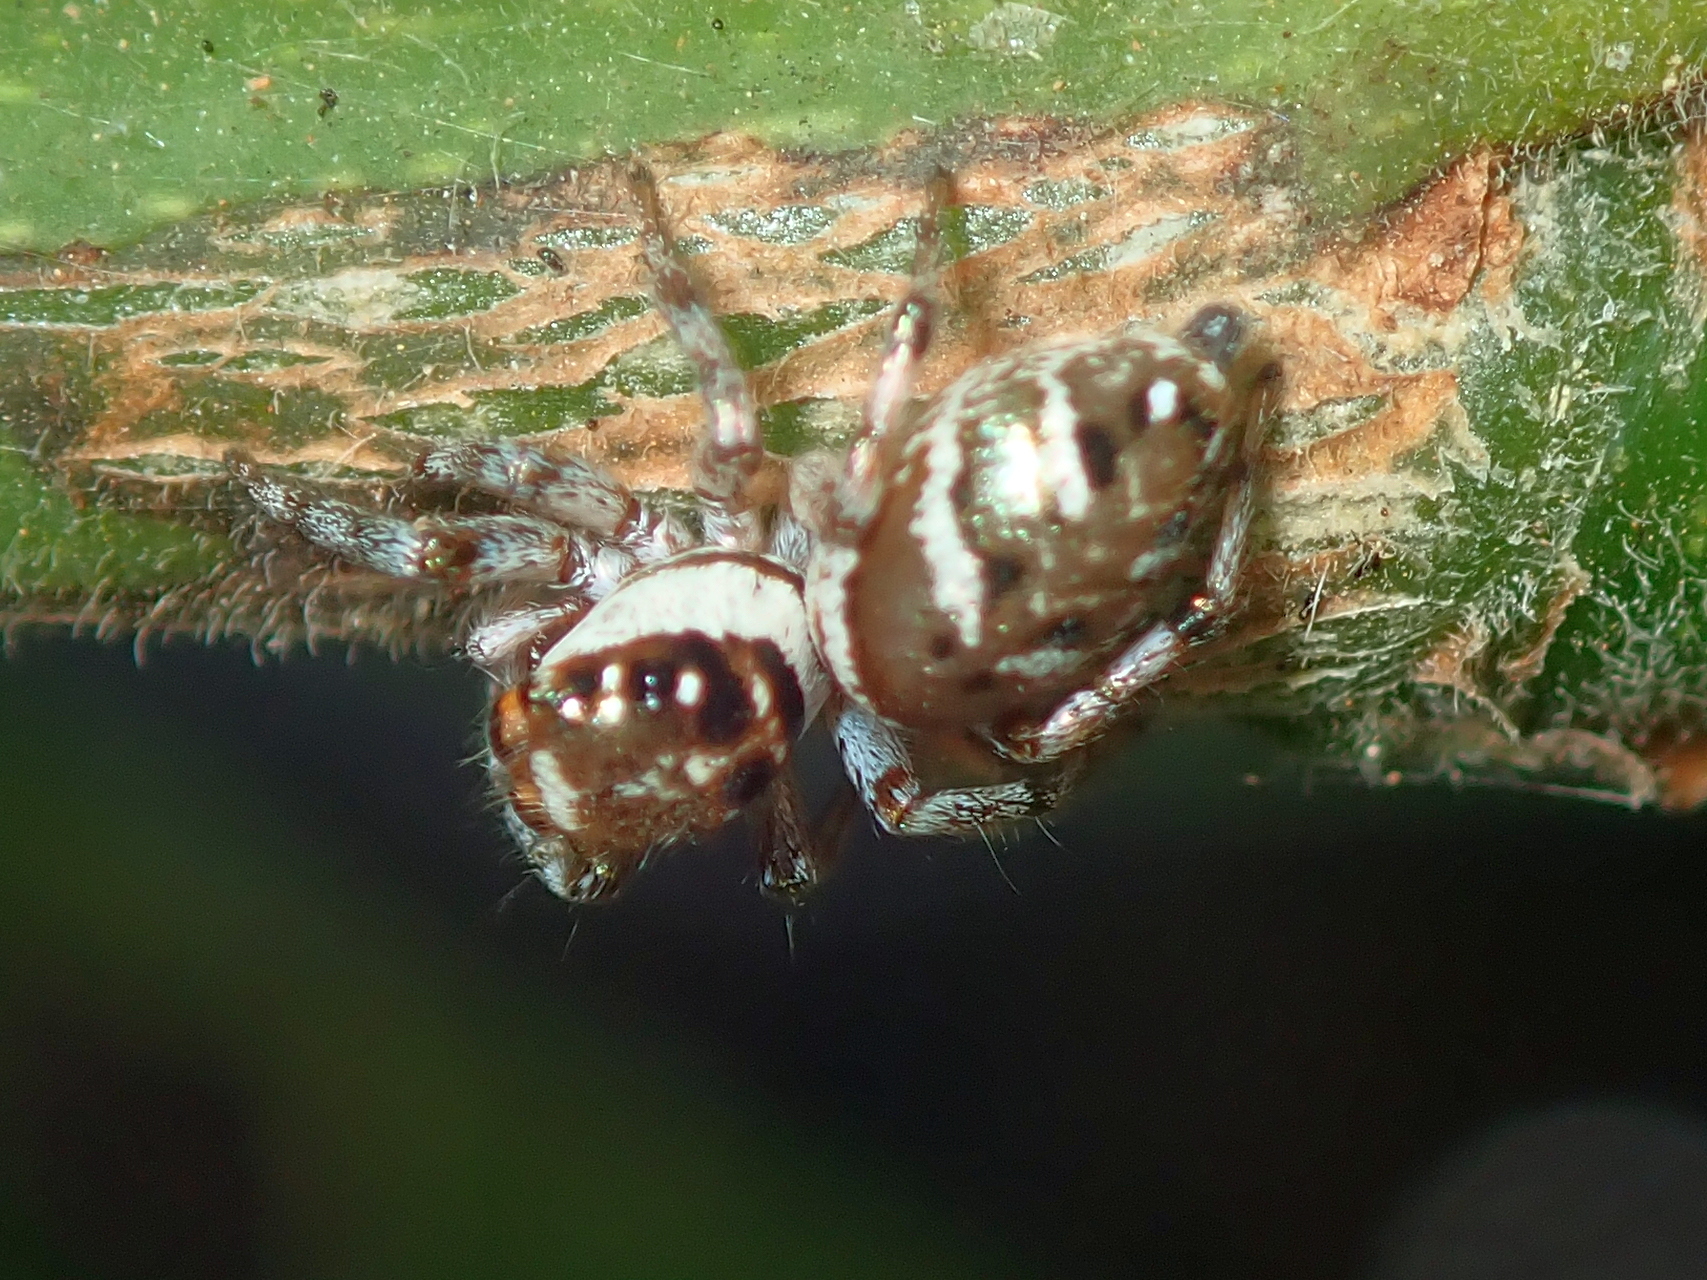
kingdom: Animalia
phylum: Arthropoda
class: Arachnida
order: Araneae
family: Salticidae
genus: Philira
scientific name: Philira micans
